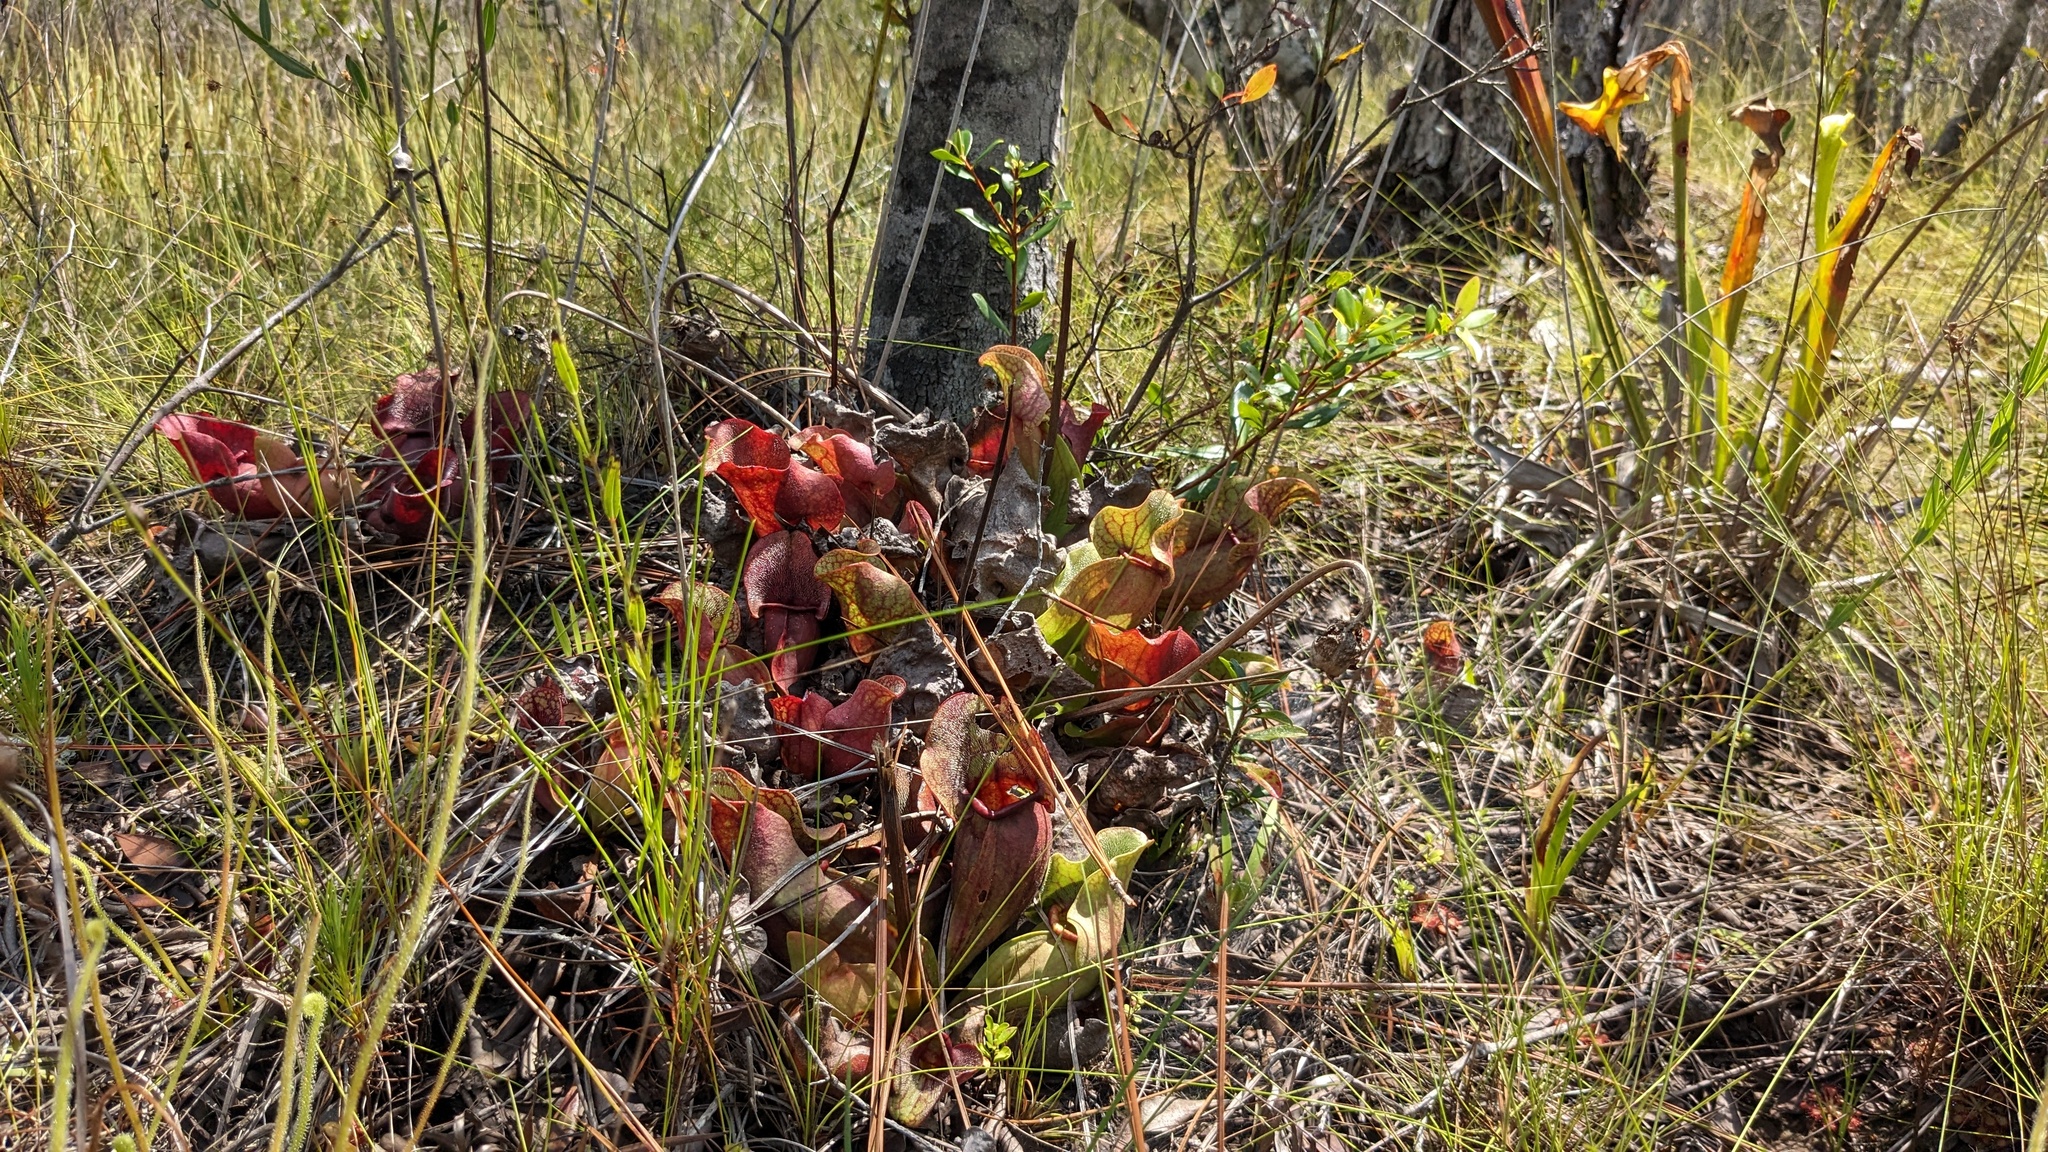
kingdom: Plantae
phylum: Tracheophyta
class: Magnoliopsida
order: Ericales
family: Sarraceniaceae
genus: Sarracenia
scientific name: Sarracenia rosea
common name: Pink pitcherplant
